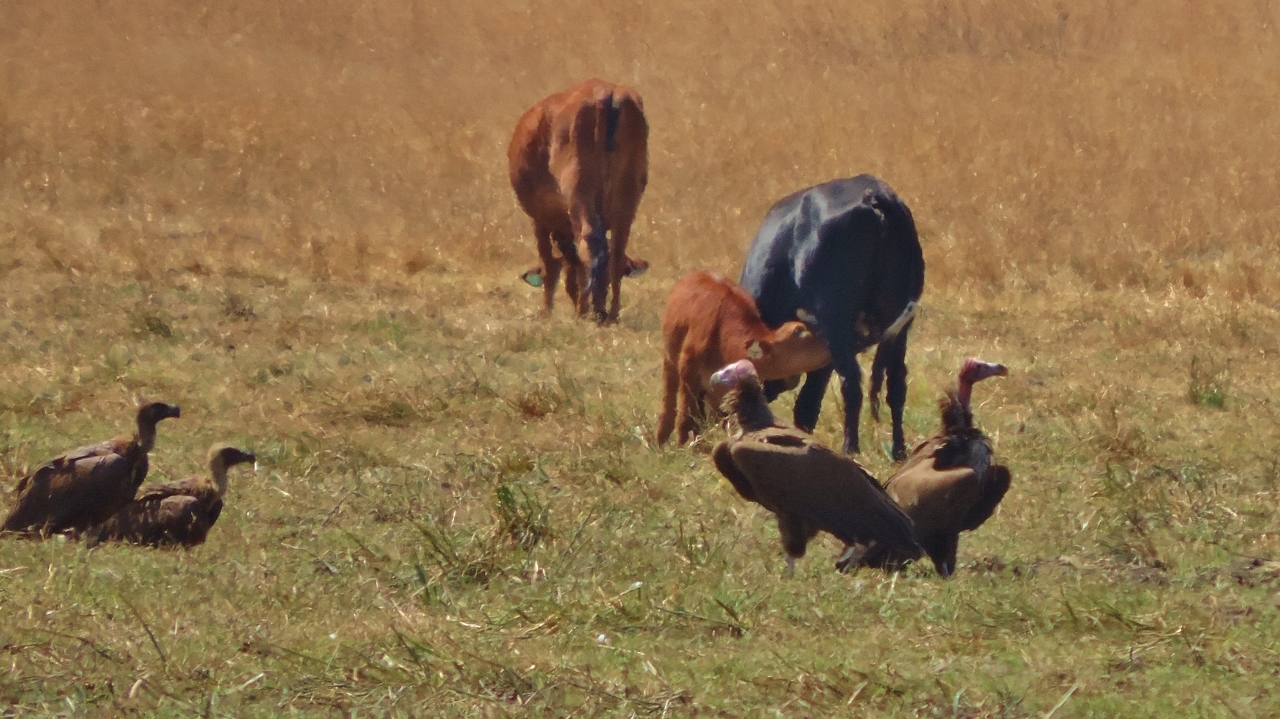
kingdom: Animalia
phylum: Chordata
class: Aves
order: Accipitriformes
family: Accipitridae
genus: Torgos
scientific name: Torgos tracheliotos
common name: Lappet-faced vulture
